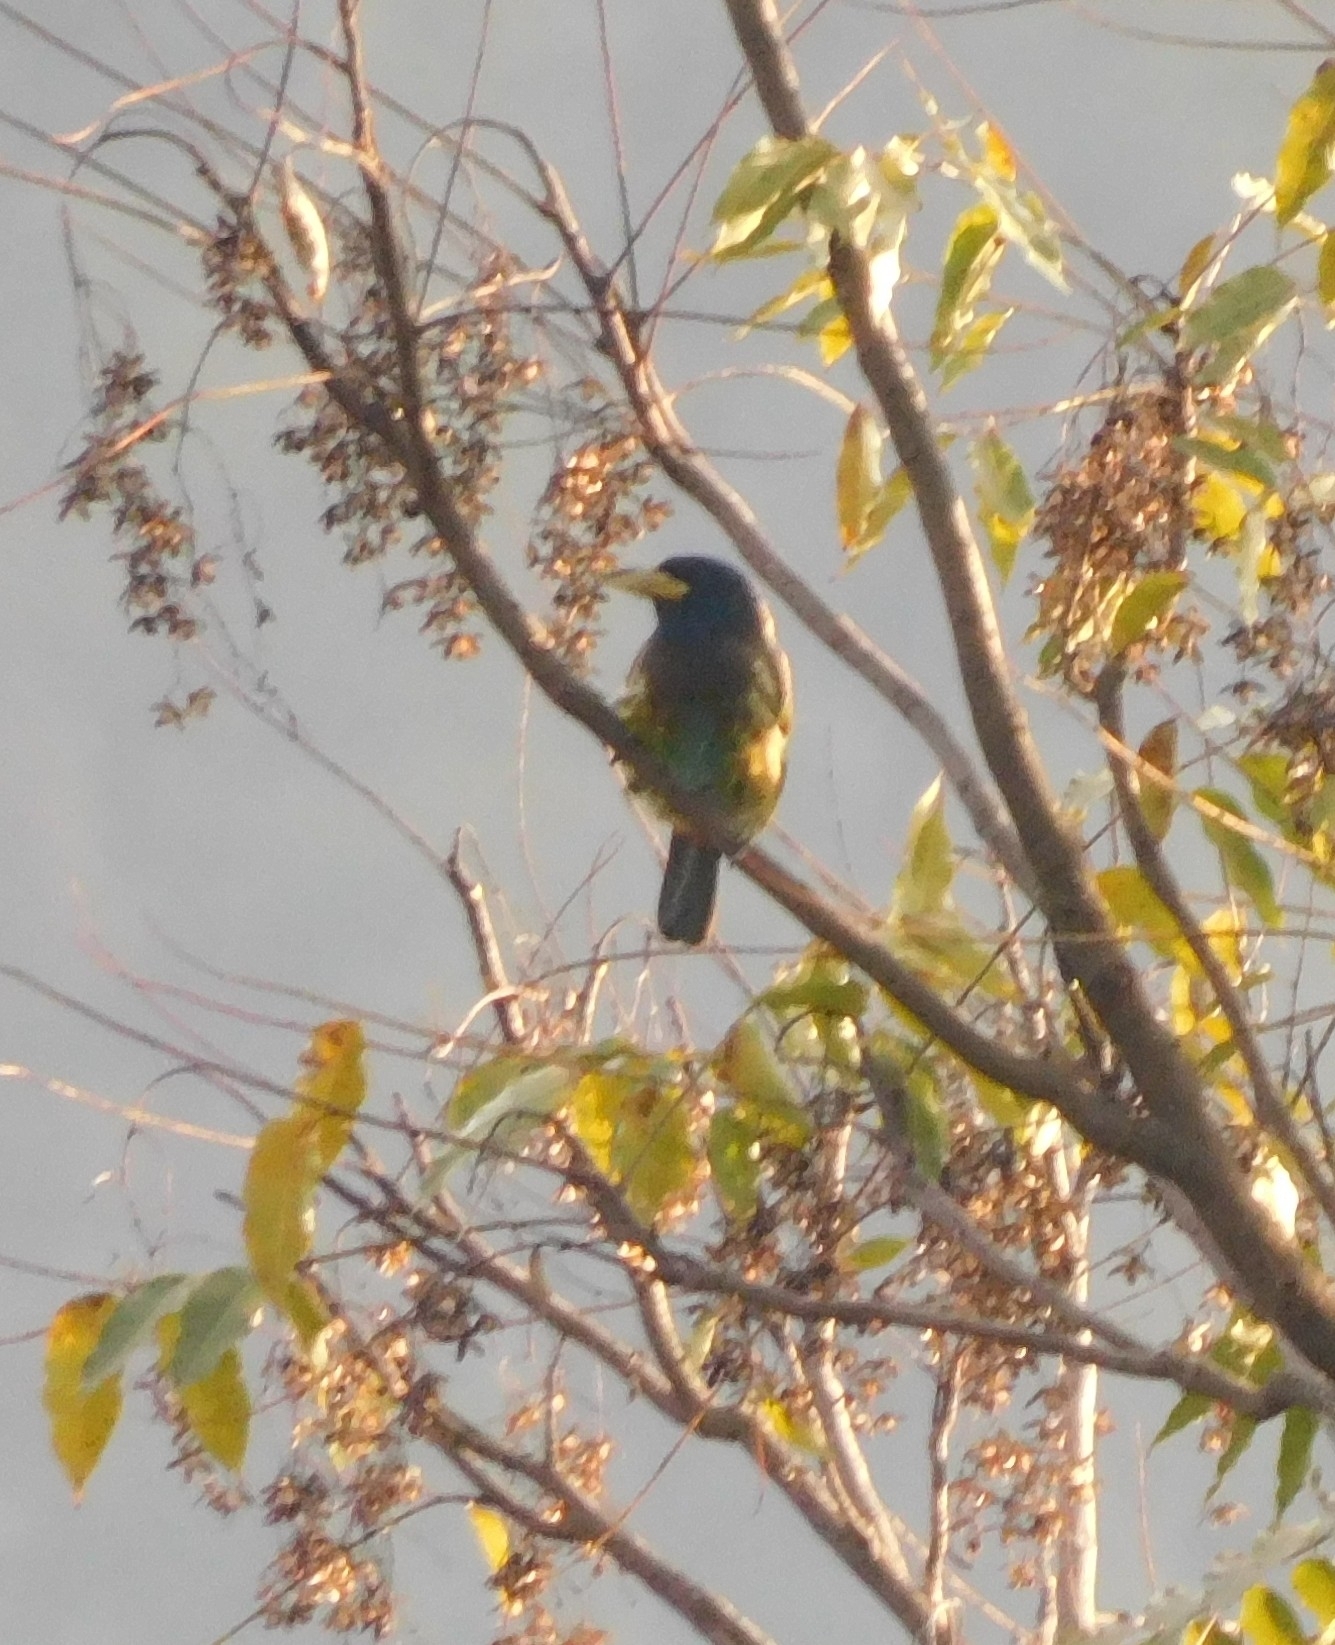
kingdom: Animalia
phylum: Chordata
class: Aves
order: Piciformes
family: Megalaimidae
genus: Psilopogon
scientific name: Psilopogon virens
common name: Great barbet
